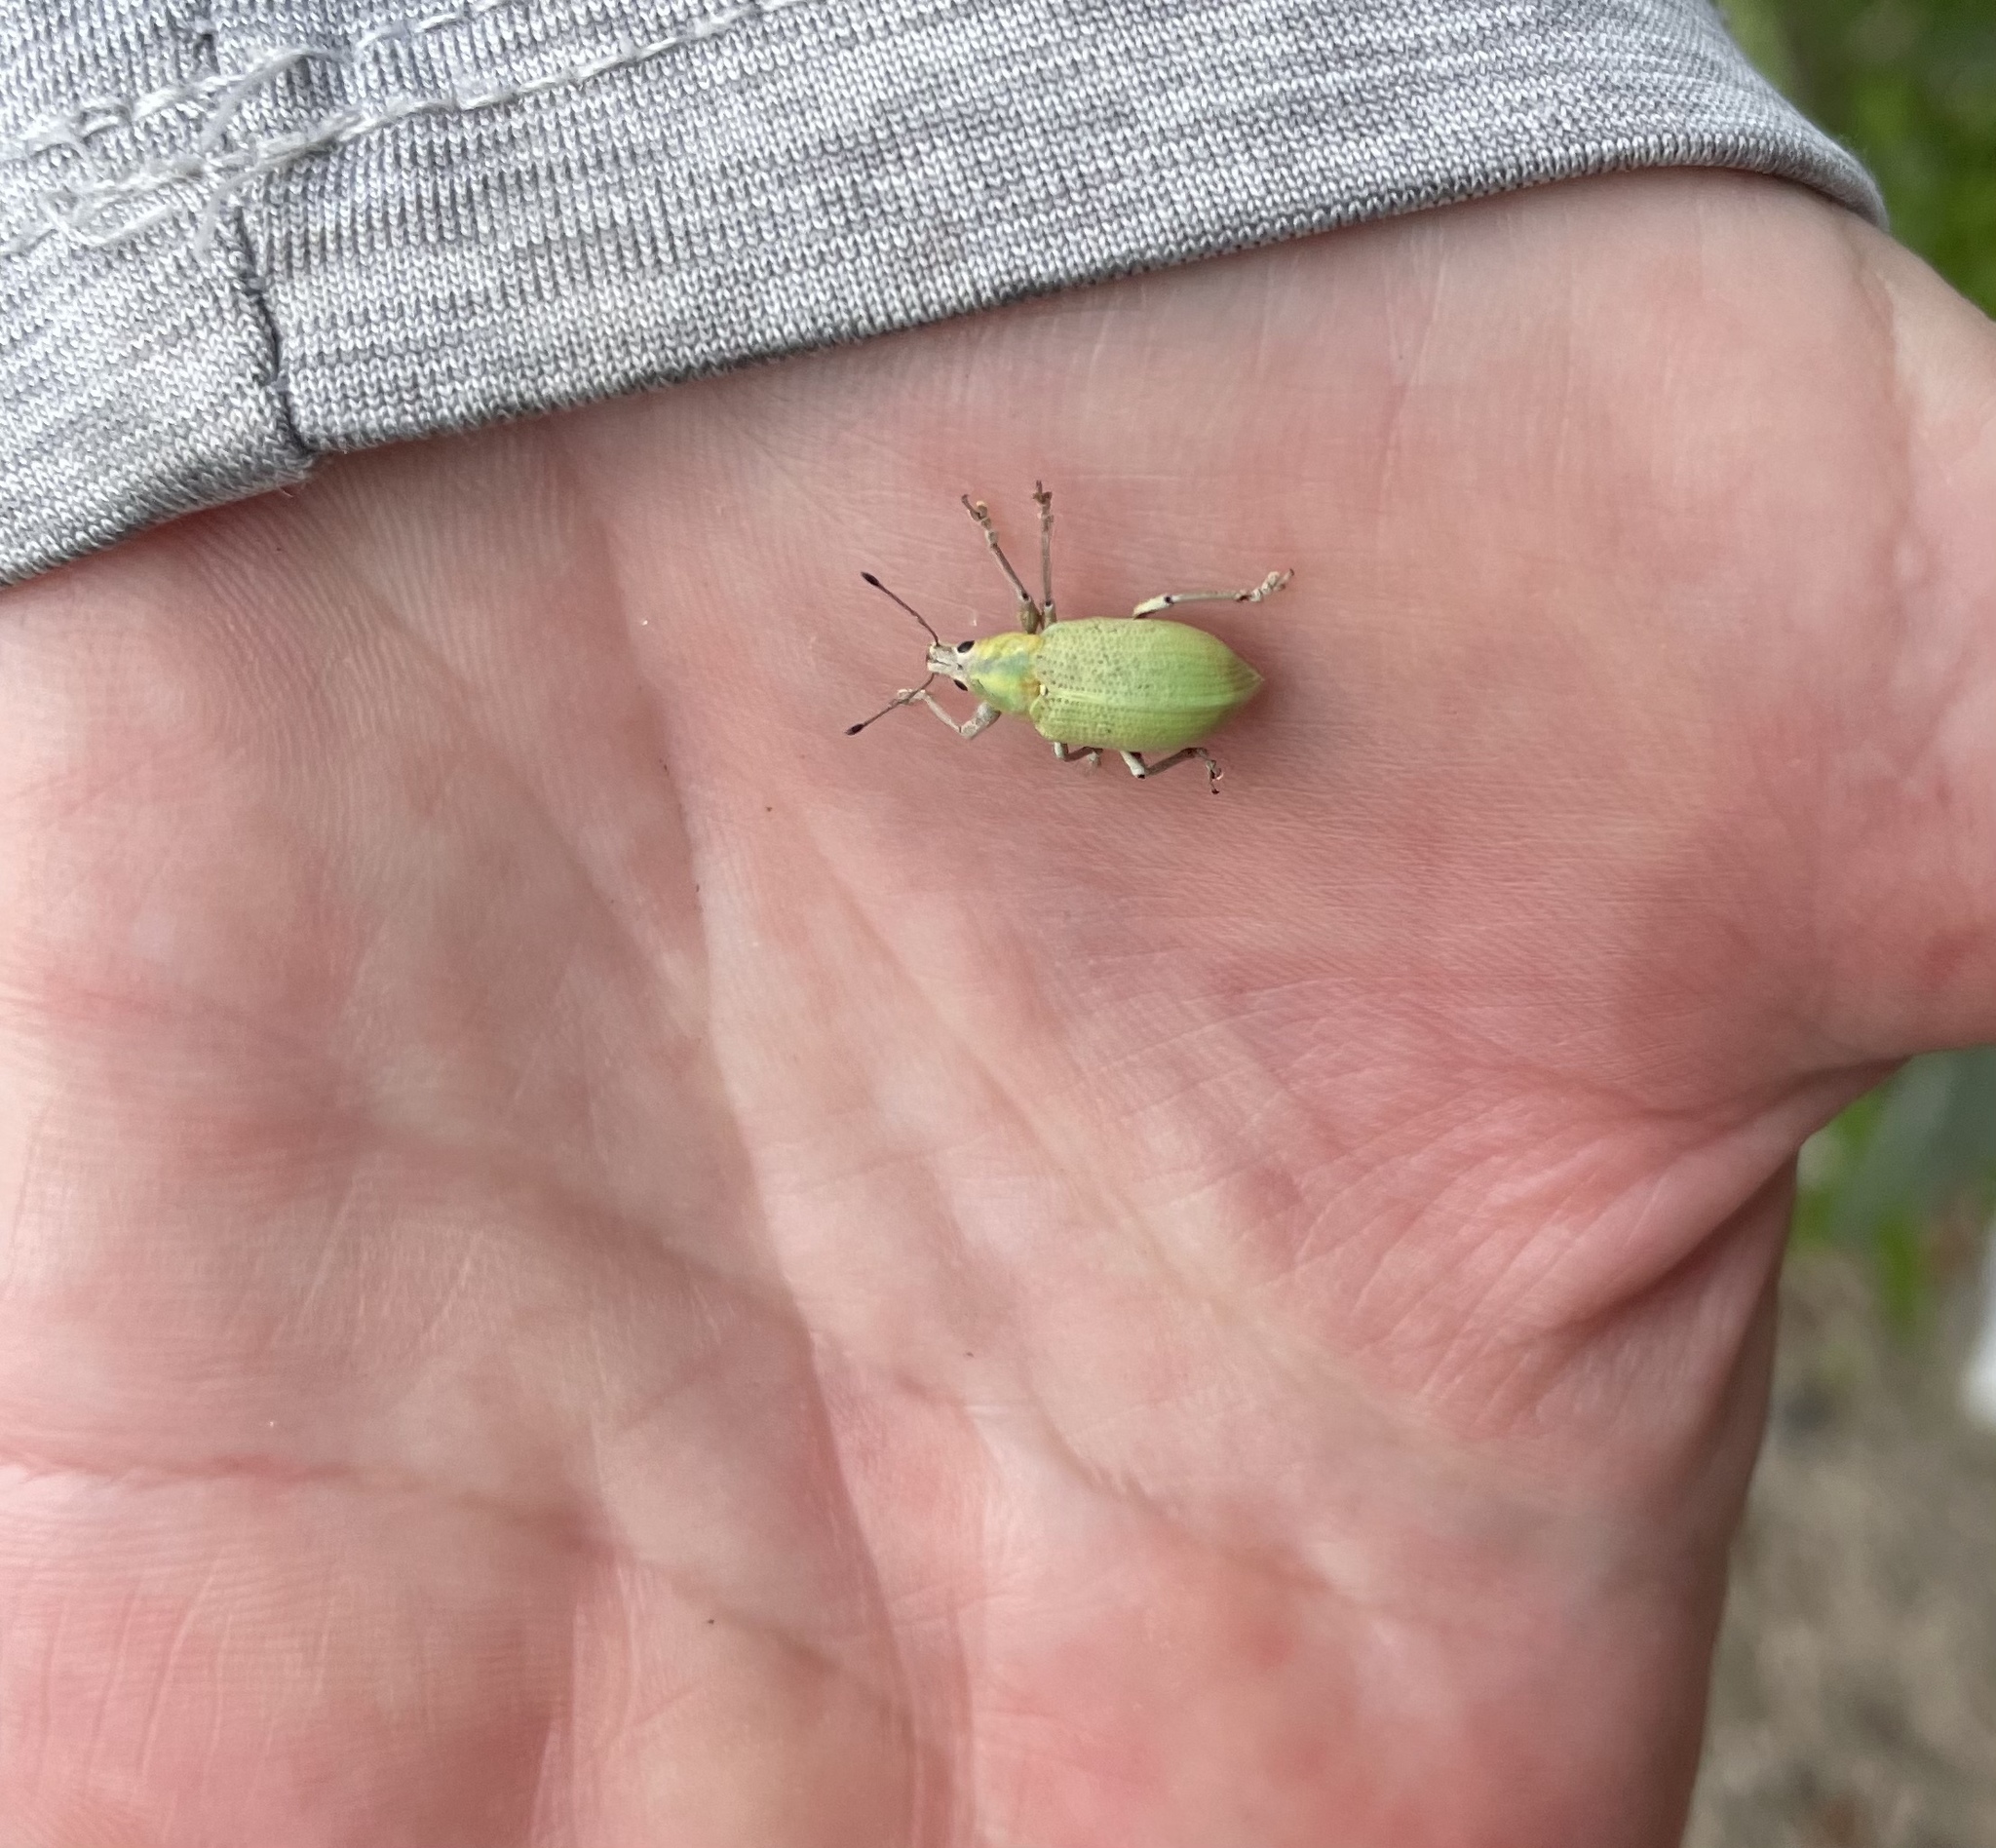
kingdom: Animalia
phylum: Arthropoda
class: Insecta
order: Coleoptera
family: Curculionidae
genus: Pachnaeus
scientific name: Pachnaeus litus
